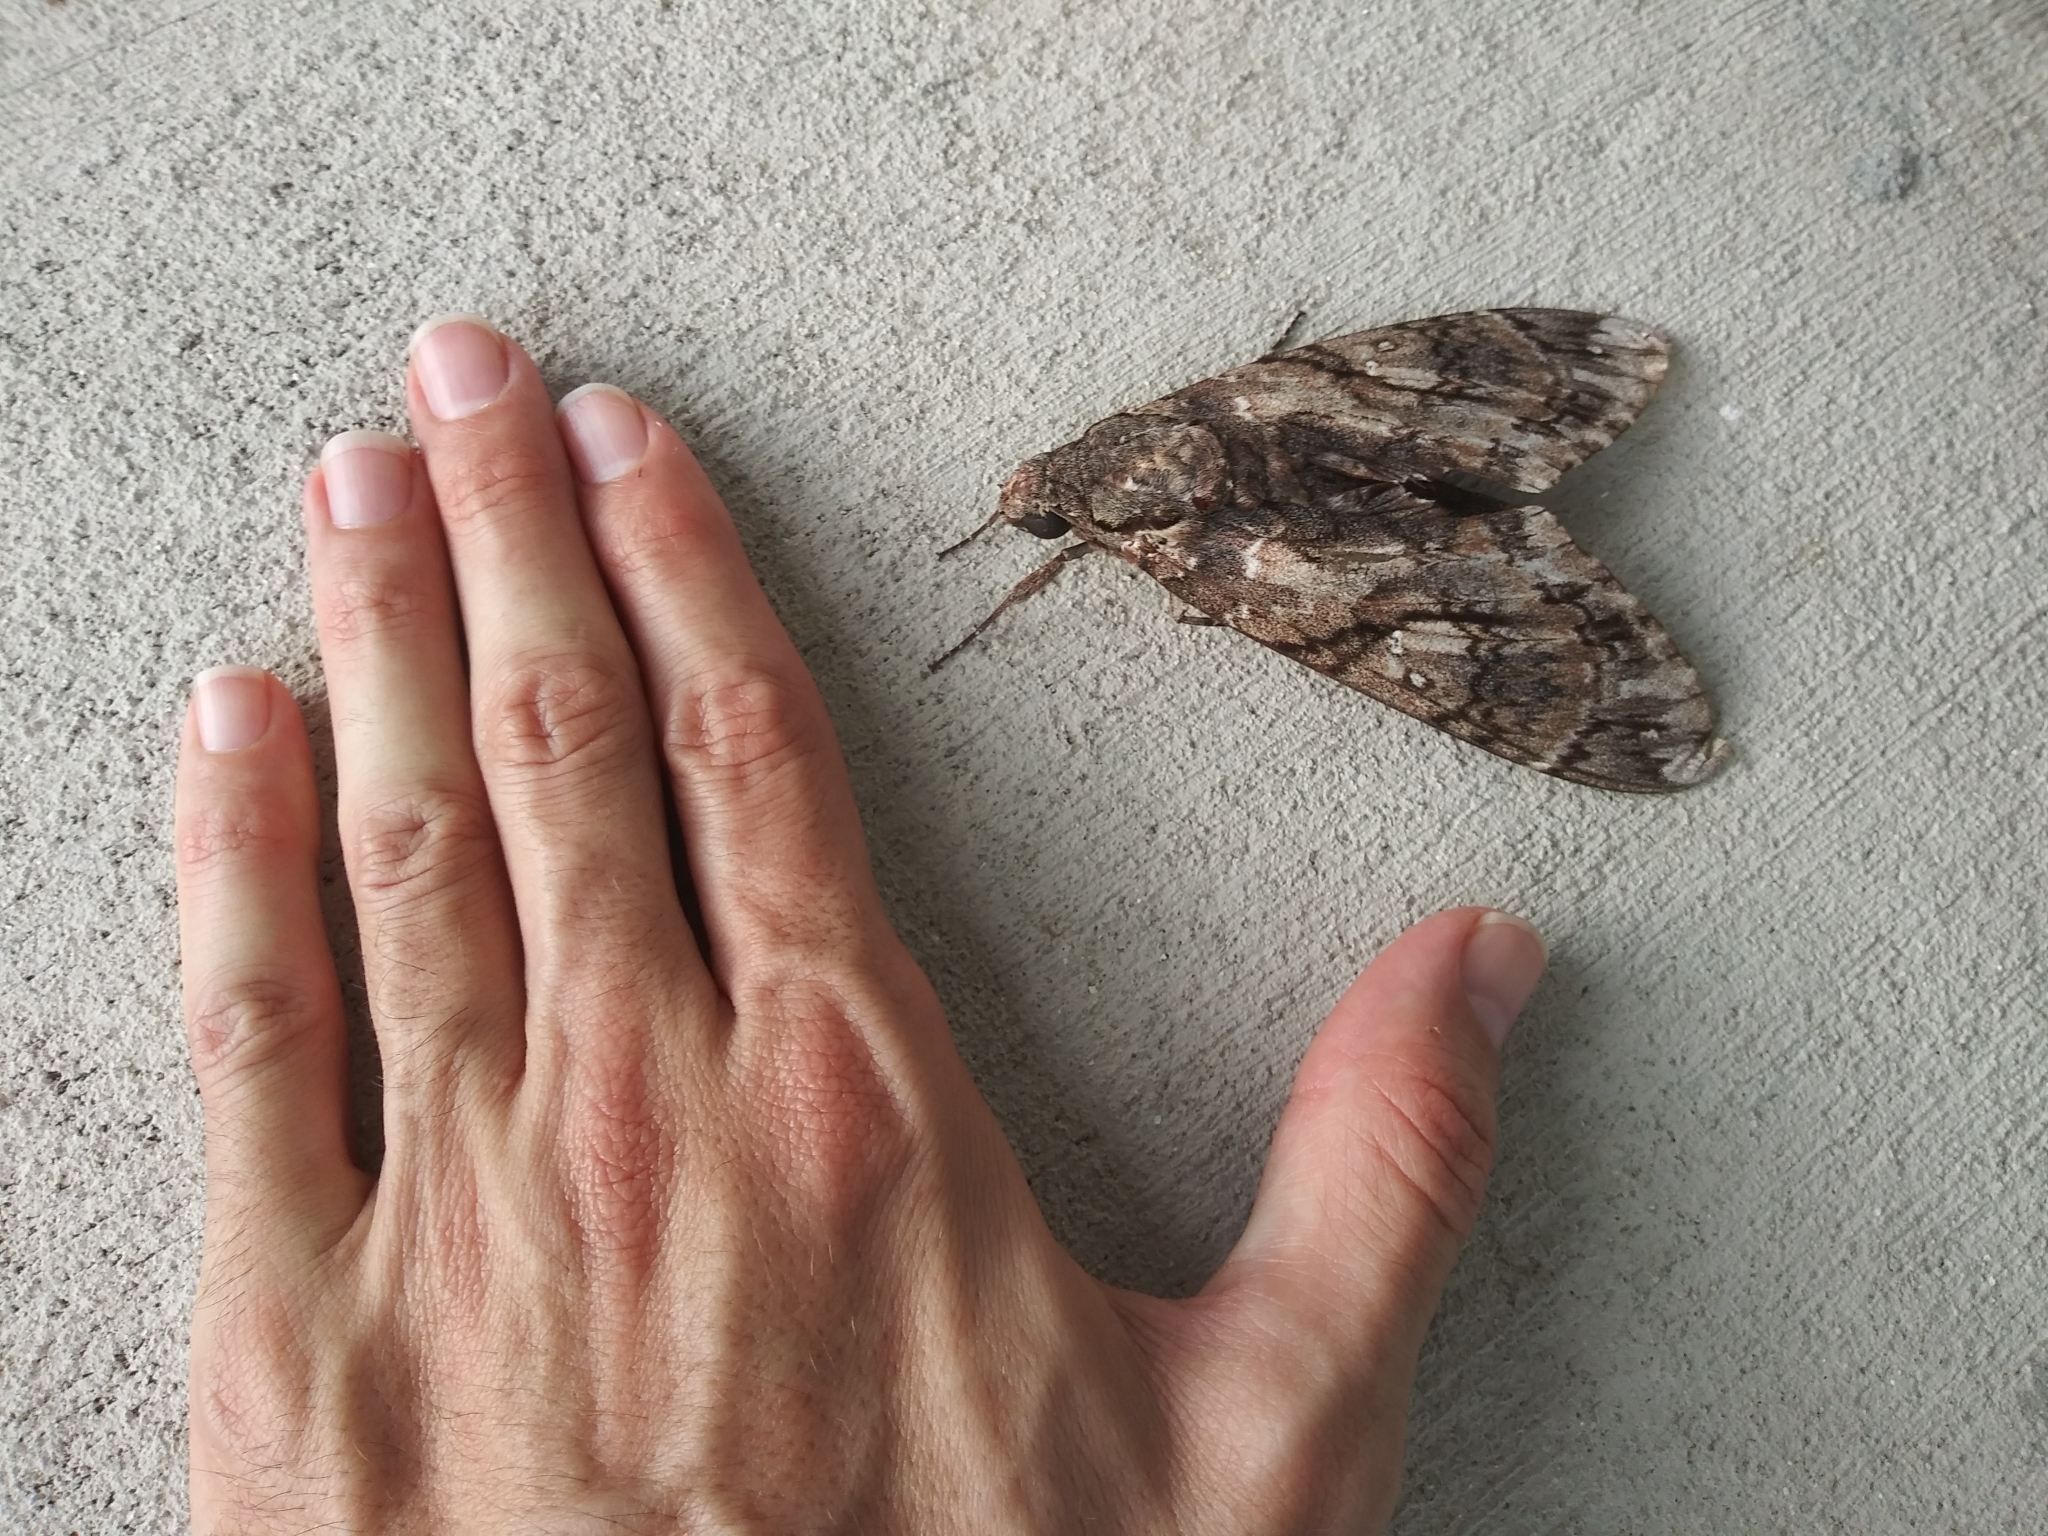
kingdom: Animalia
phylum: Arthropoda
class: Insecta
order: Lepidoptera
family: Sphingidae
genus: Cocytius
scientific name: Cocytius antaeus
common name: Giant sphinx
